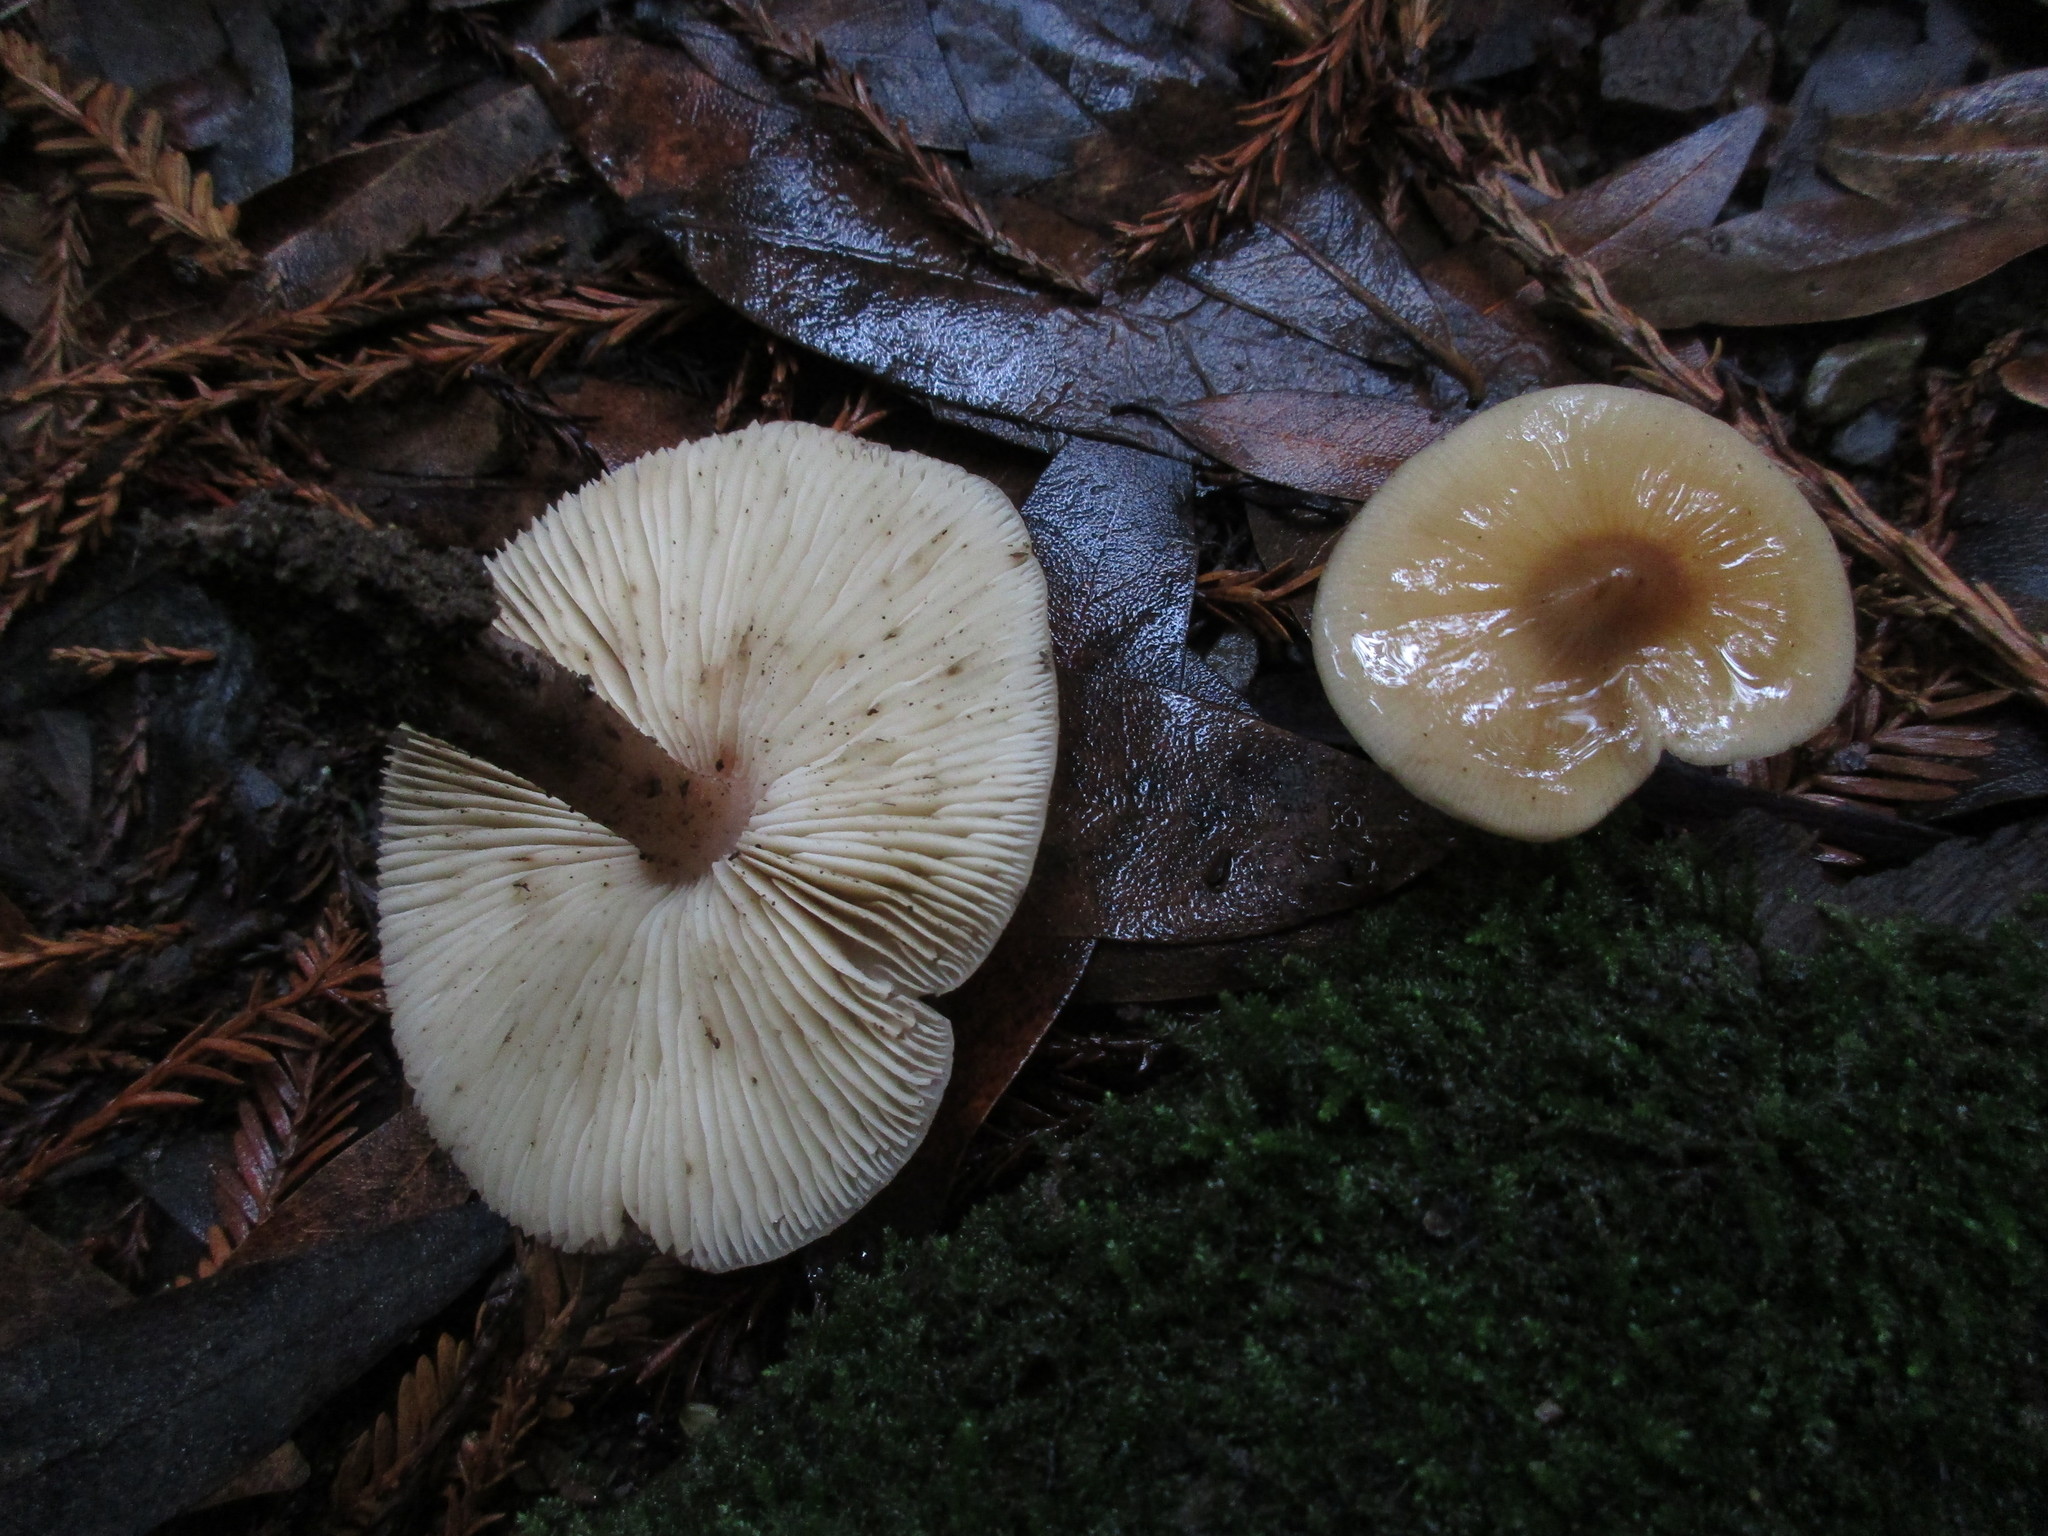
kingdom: Fungi
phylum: Basidiomycota
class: Agaricomycetes
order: Agaricales
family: Tricholomataceae
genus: Caulorhiza
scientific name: Caulorhiza umbonata
